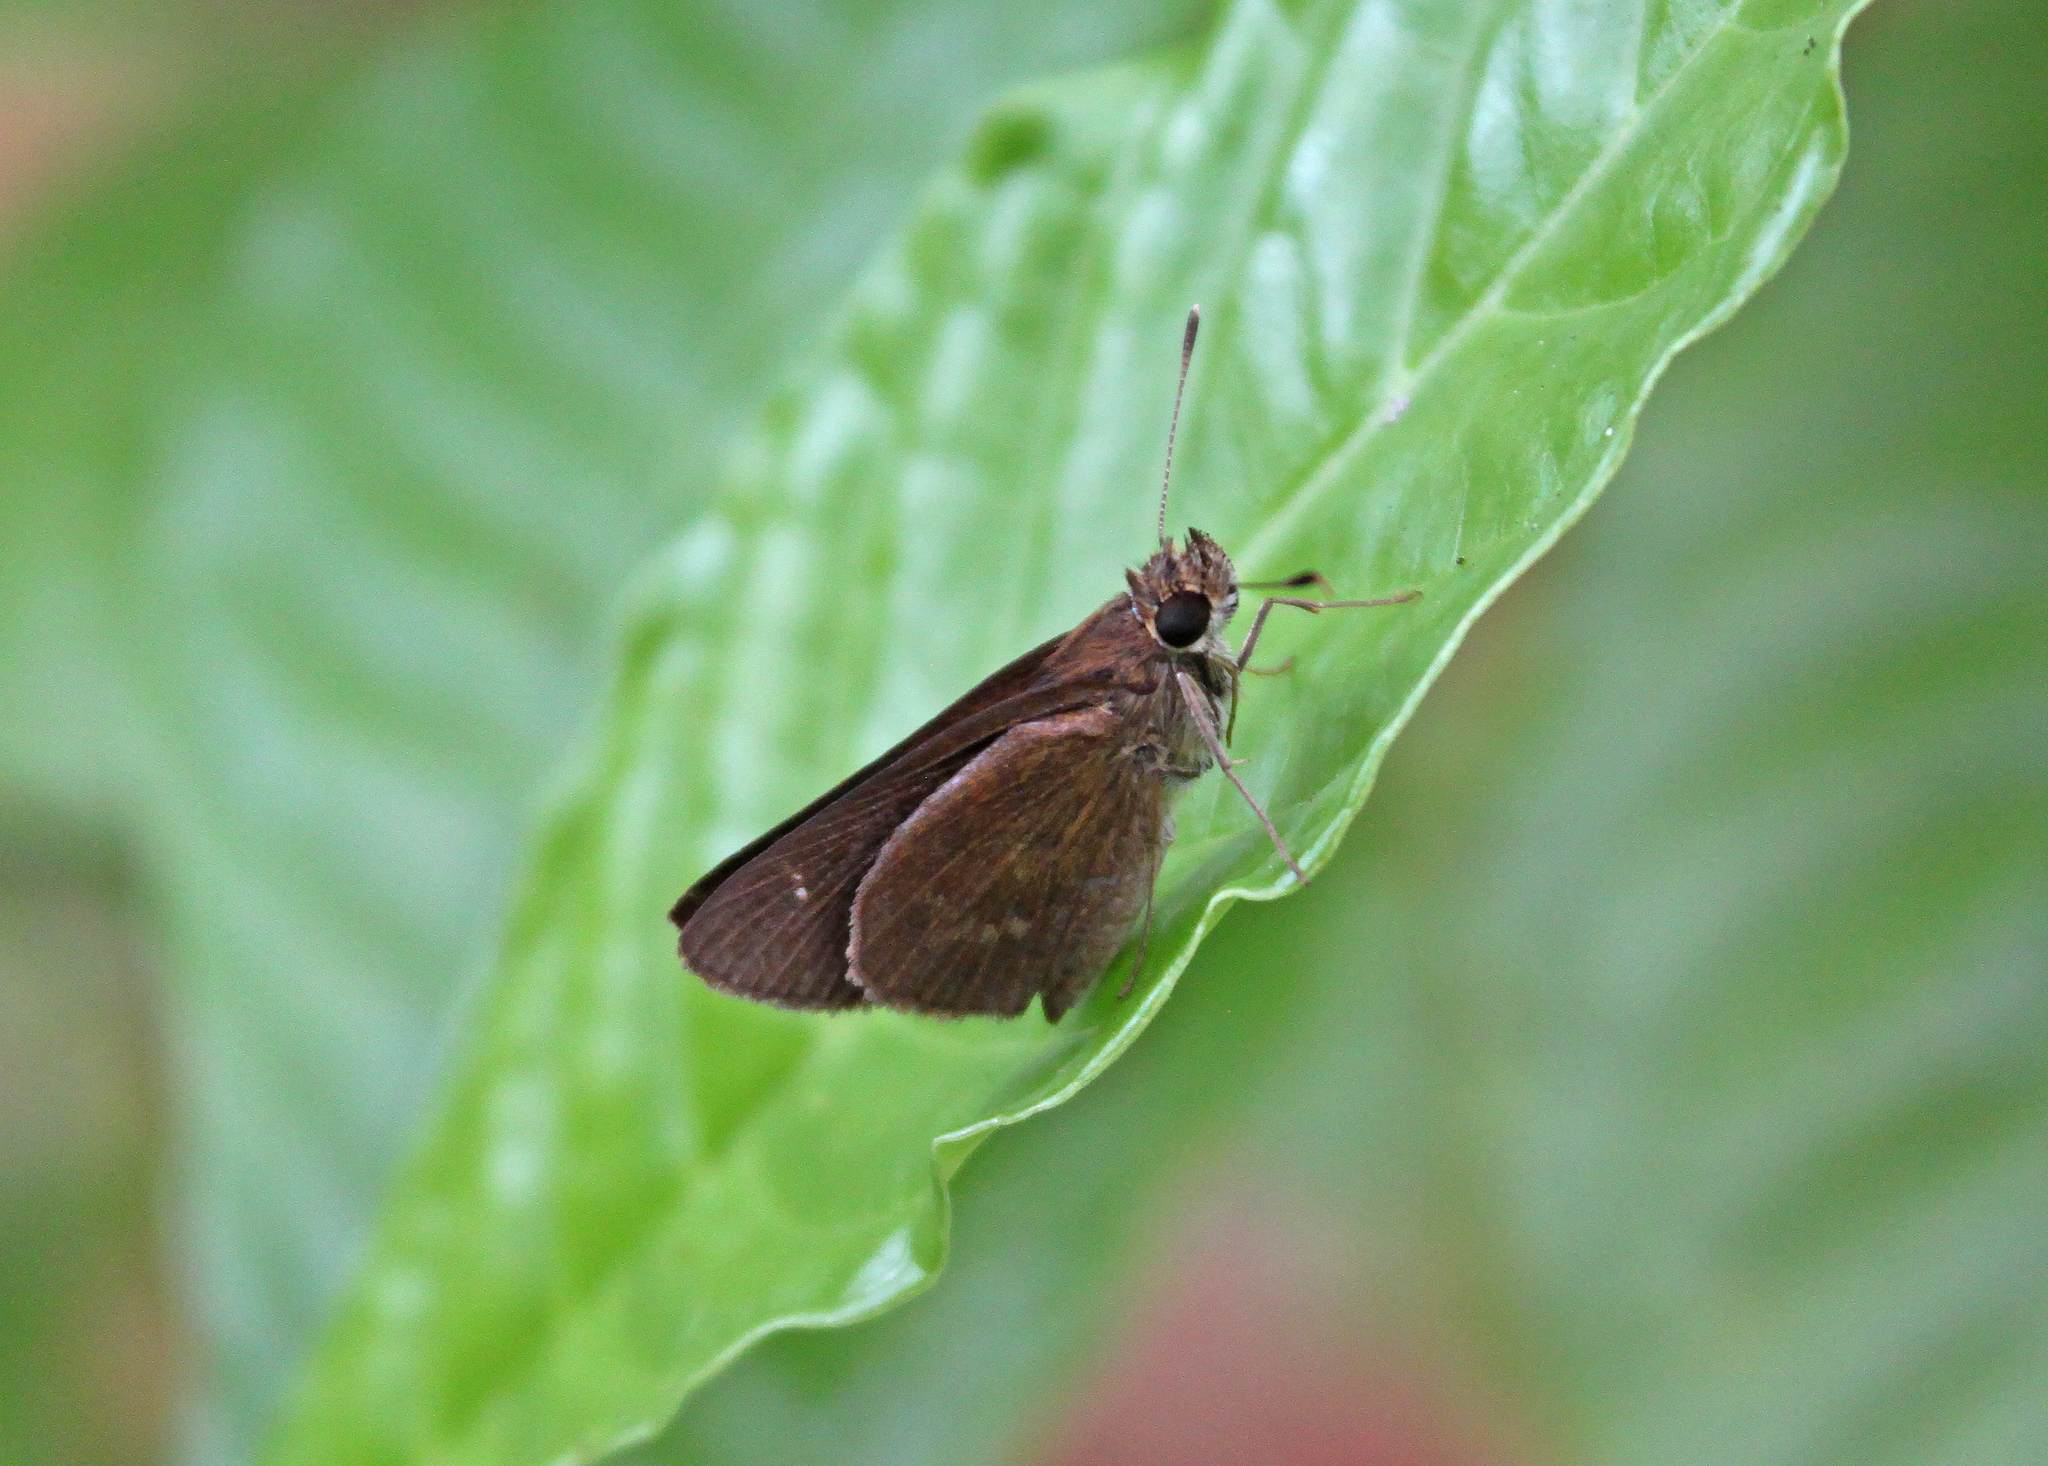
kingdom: Animalia
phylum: Arthropoda
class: Insecta
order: Lepidoptera
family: Hesperiidae
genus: Cymaenes
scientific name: Cymaenes tripunctus
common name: Dingy dotted skipper
